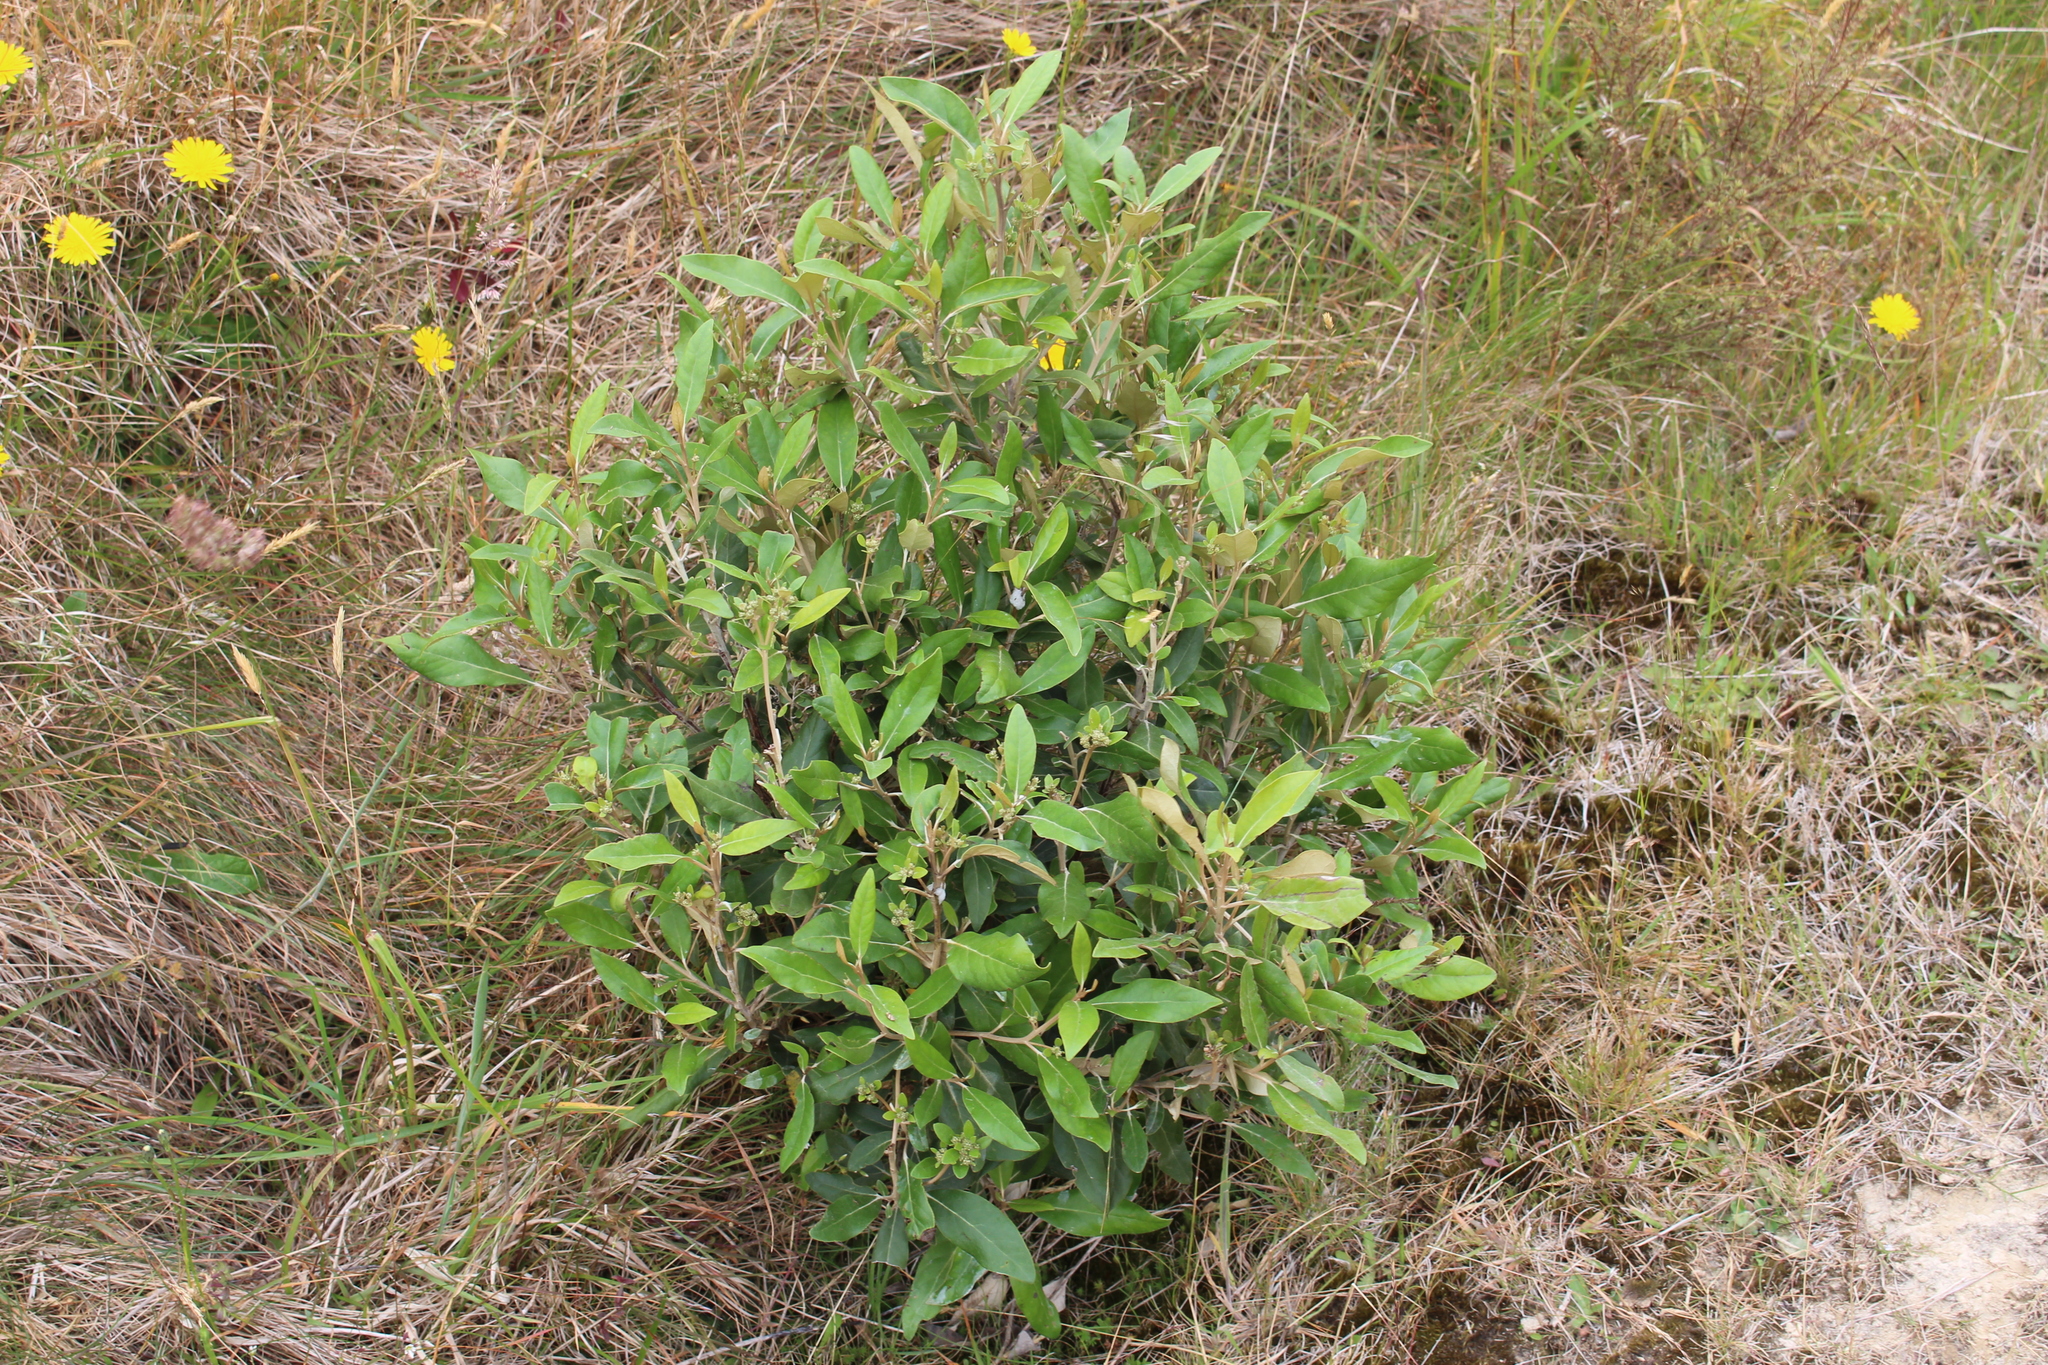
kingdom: Plantae
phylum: Tracheophyta
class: Magnoliopsida
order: Asterales
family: Asteraceae
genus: Olearia
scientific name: Olearia avicenniifolia
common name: Mangrove-leaf daisybush
